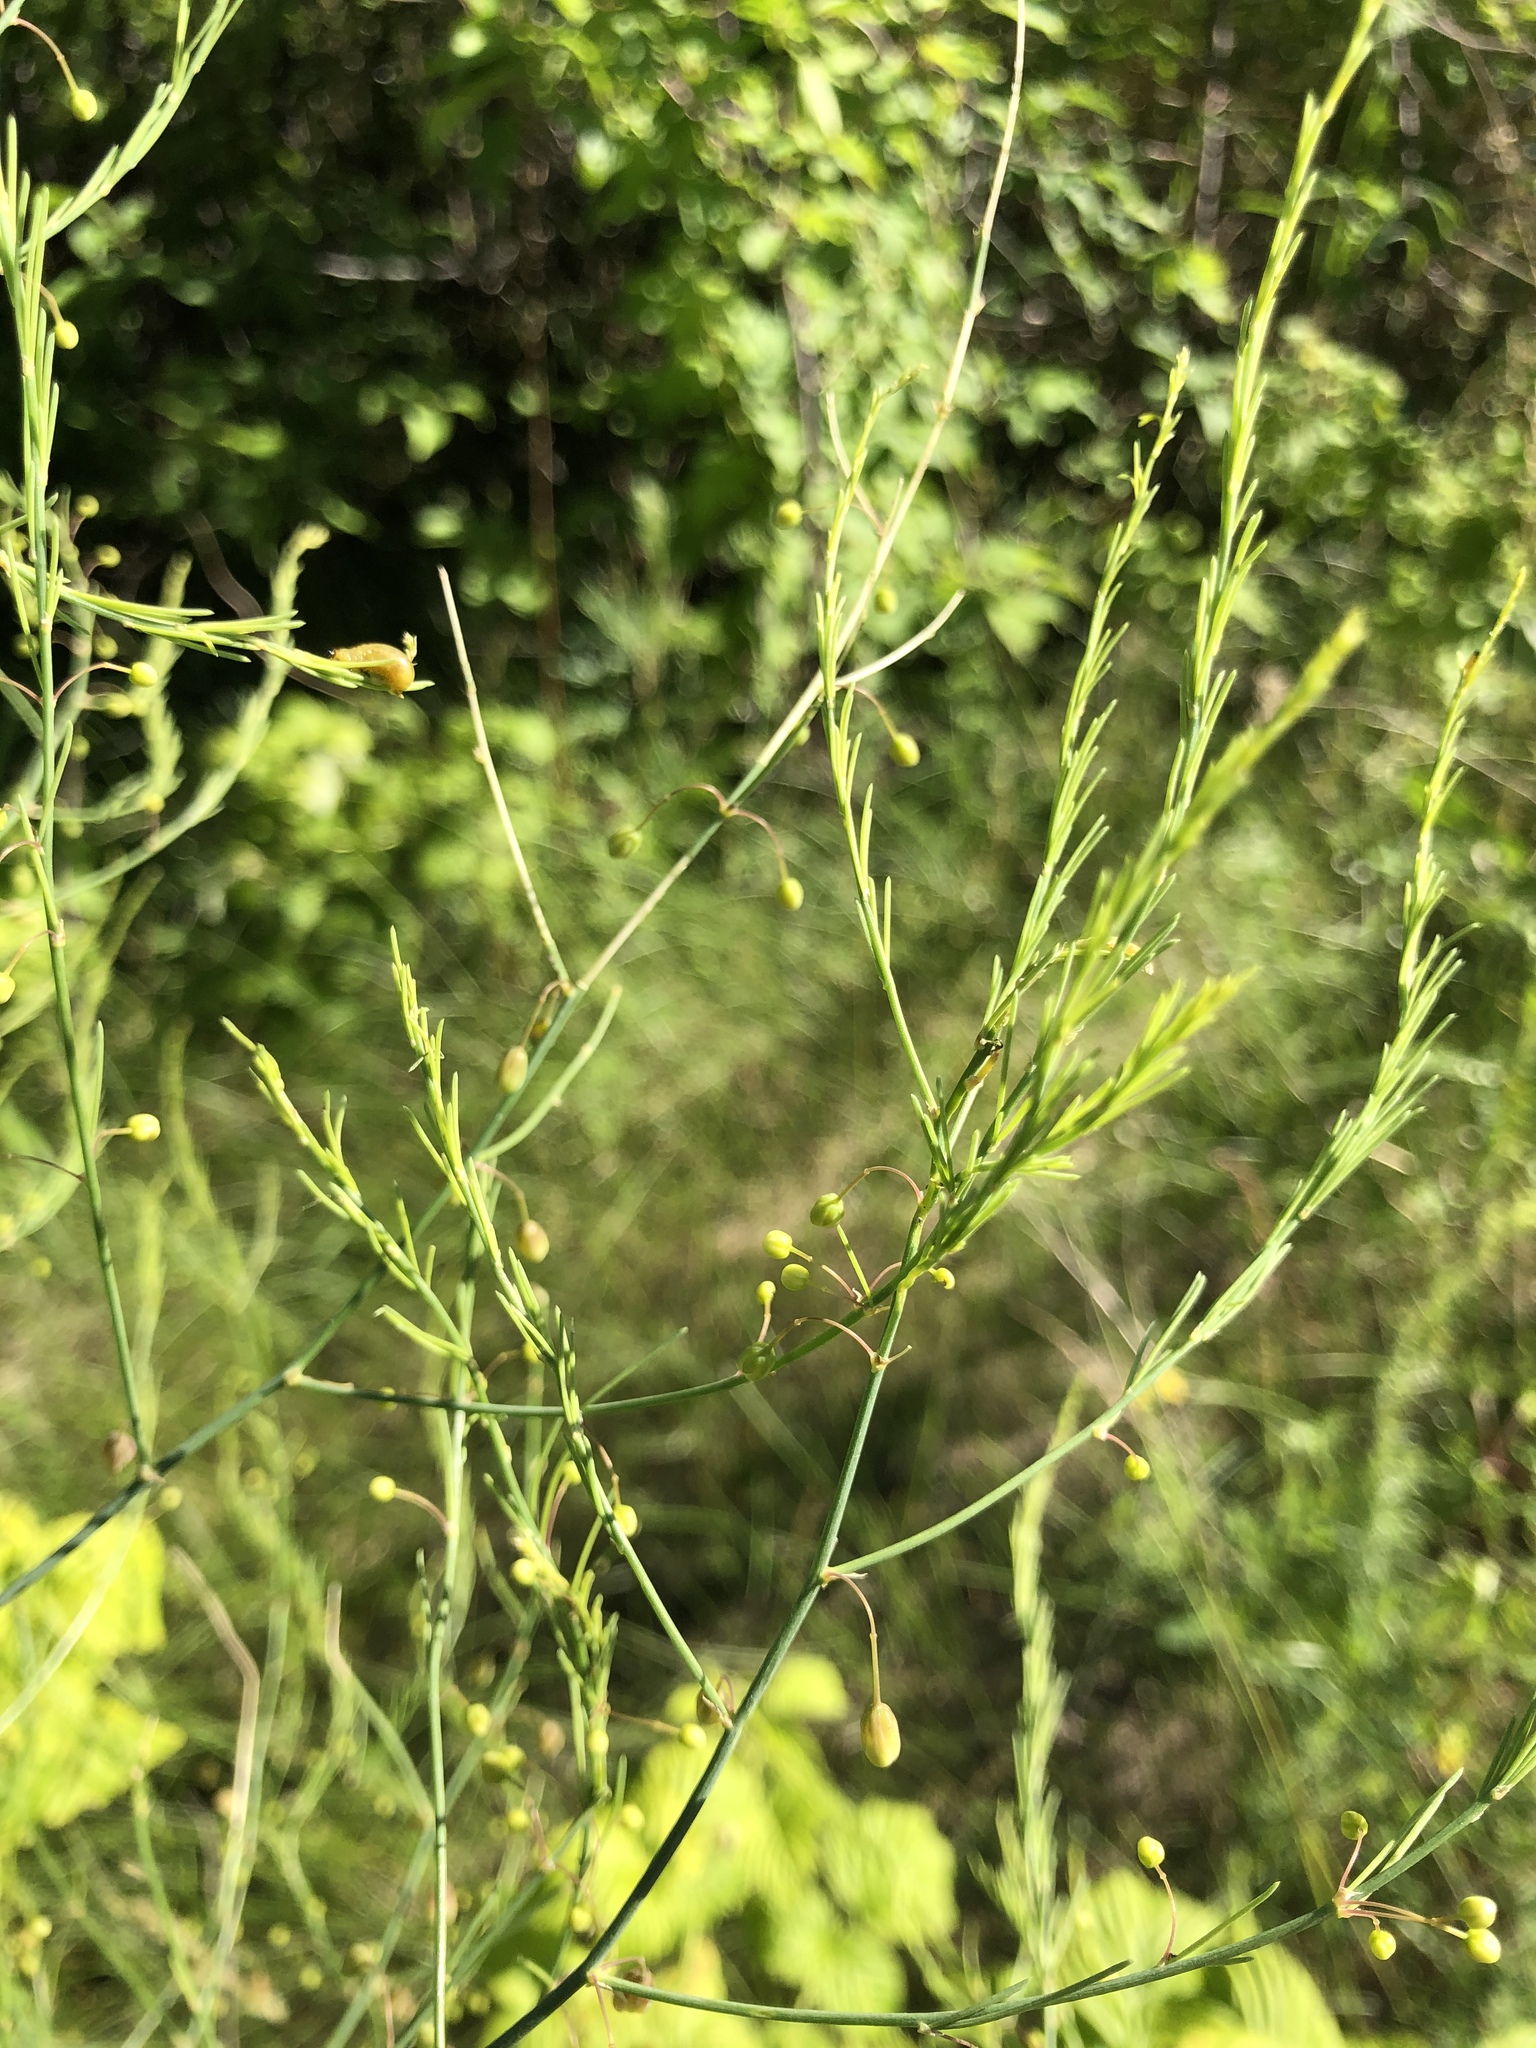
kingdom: Plantae
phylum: Tracheophyta
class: Liliopsida
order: Asparagales
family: Asparagaceae
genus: Asparagus
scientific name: Asparagus officinalis
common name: Garden asparagus
